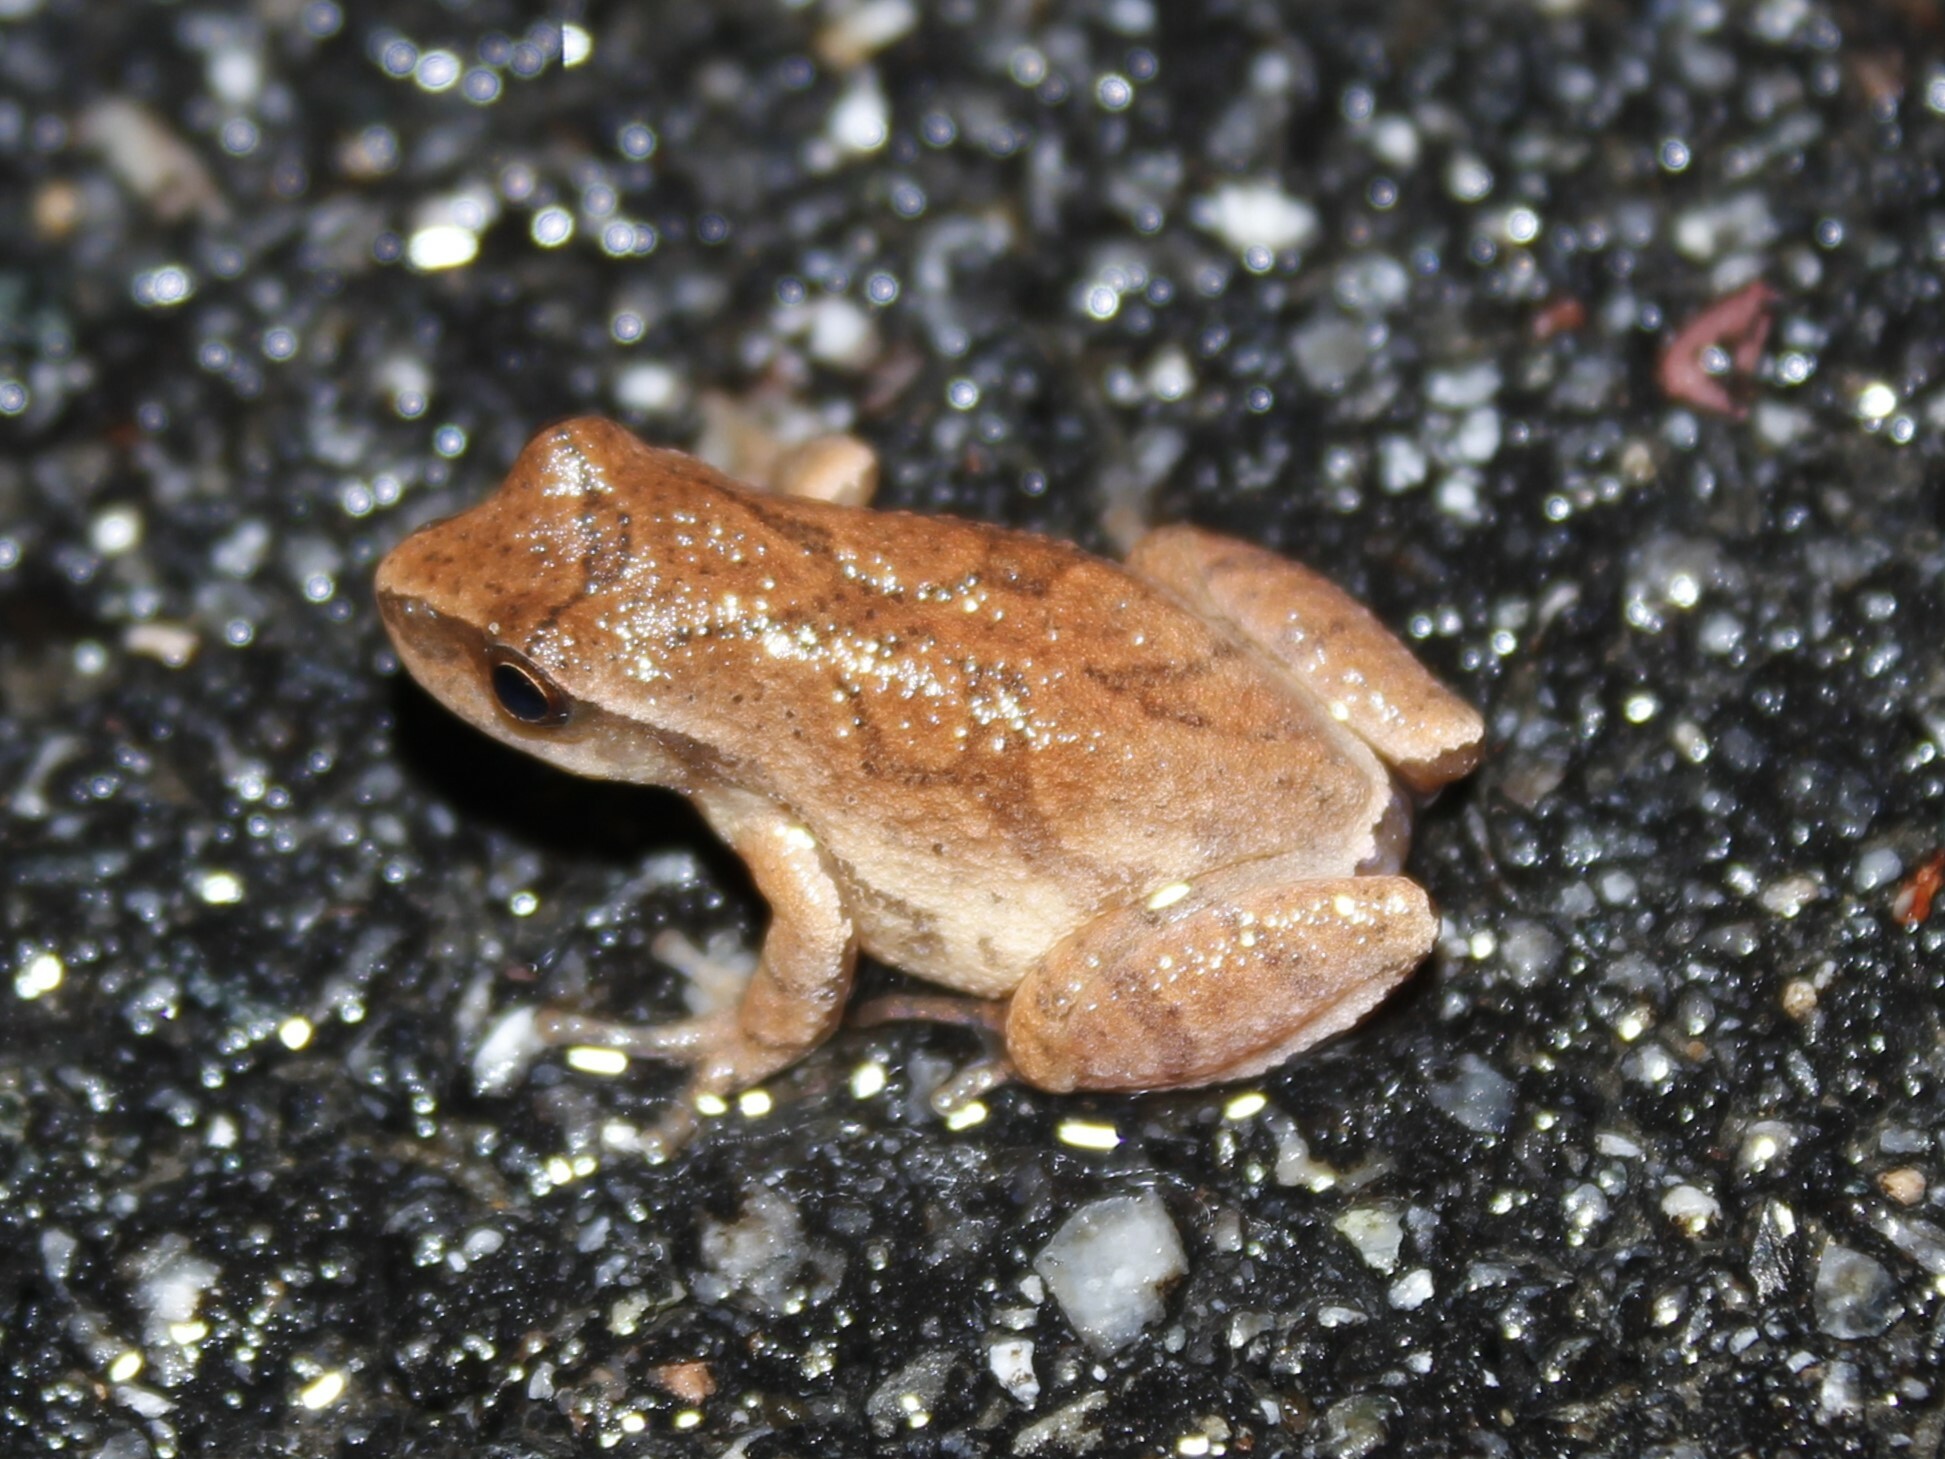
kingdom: Animalia
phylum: Chordata
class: Amphibia
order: Anura
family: Hylidae
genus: Pseudacris
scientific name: Pseudacris crucifer
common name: Spring peeper
